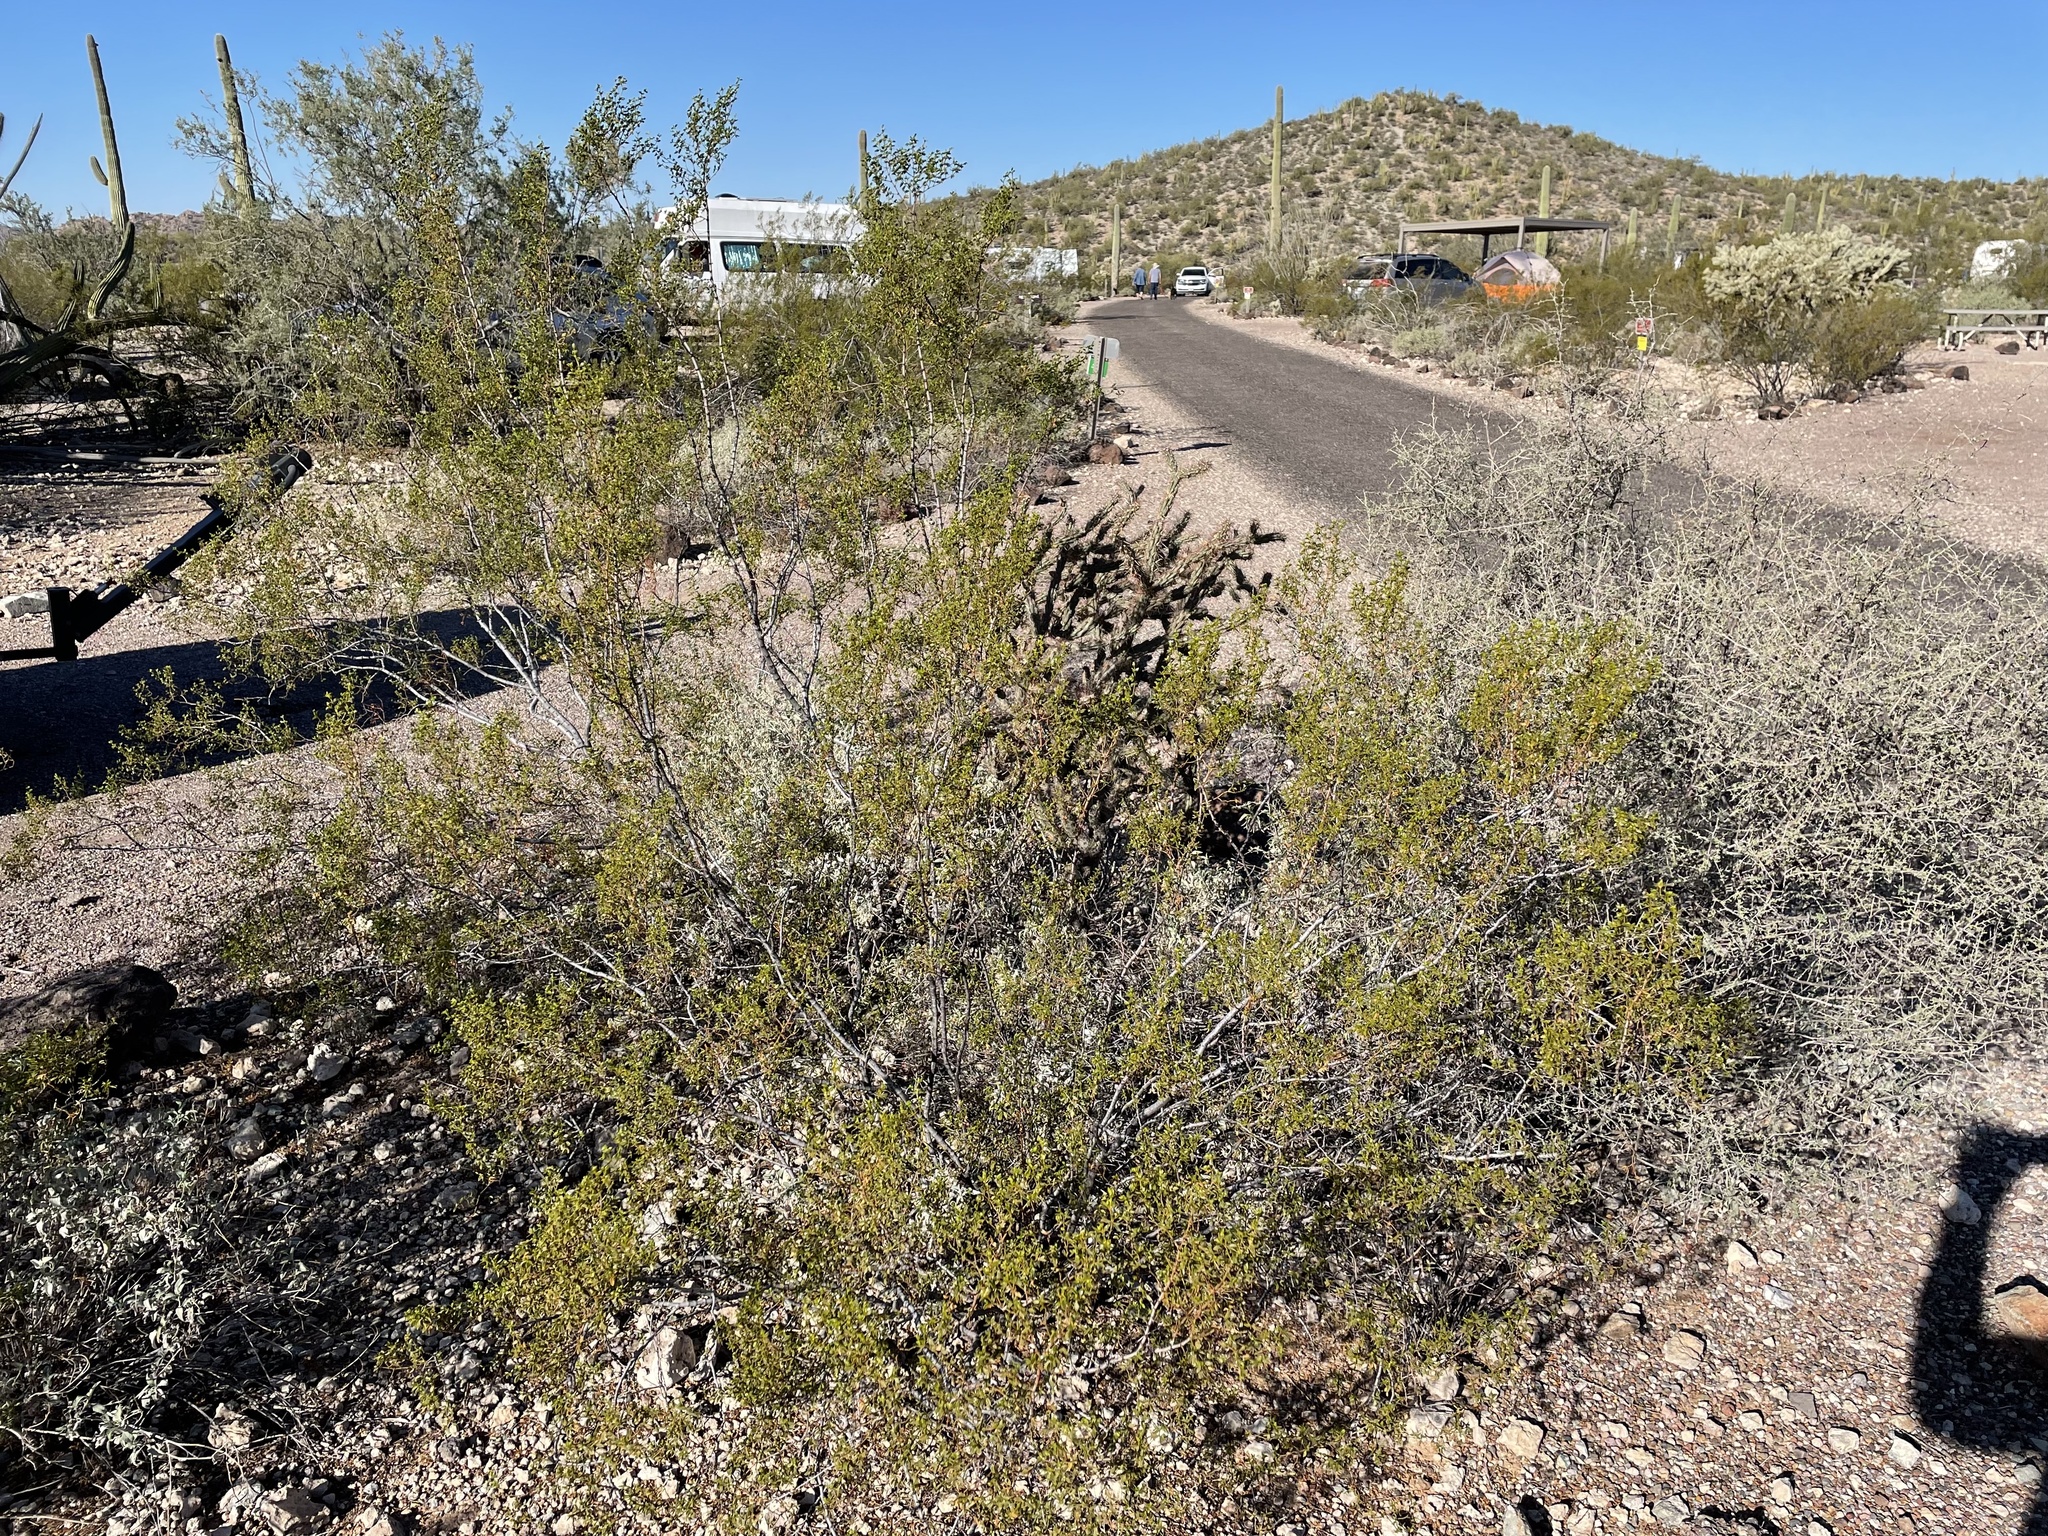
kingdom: Plantae
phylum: Tracheophyta
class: Magnoliopsida
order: Zygophyllales
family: Zygophyllaceae
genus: Larrea
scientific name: Larrea tridentata
